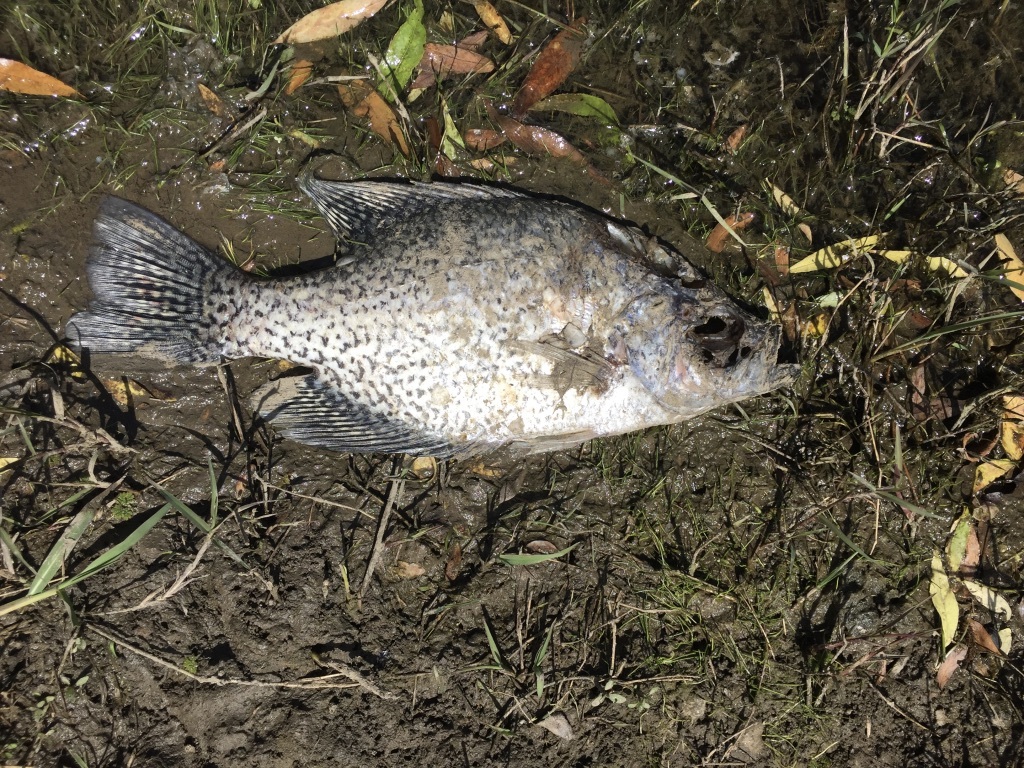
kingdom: Animalia
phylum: Chordata
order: Perciformes
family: Centrarchidae
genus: Pomoxis
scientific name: Pomoxis nigromaculatus
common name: Black crappie
